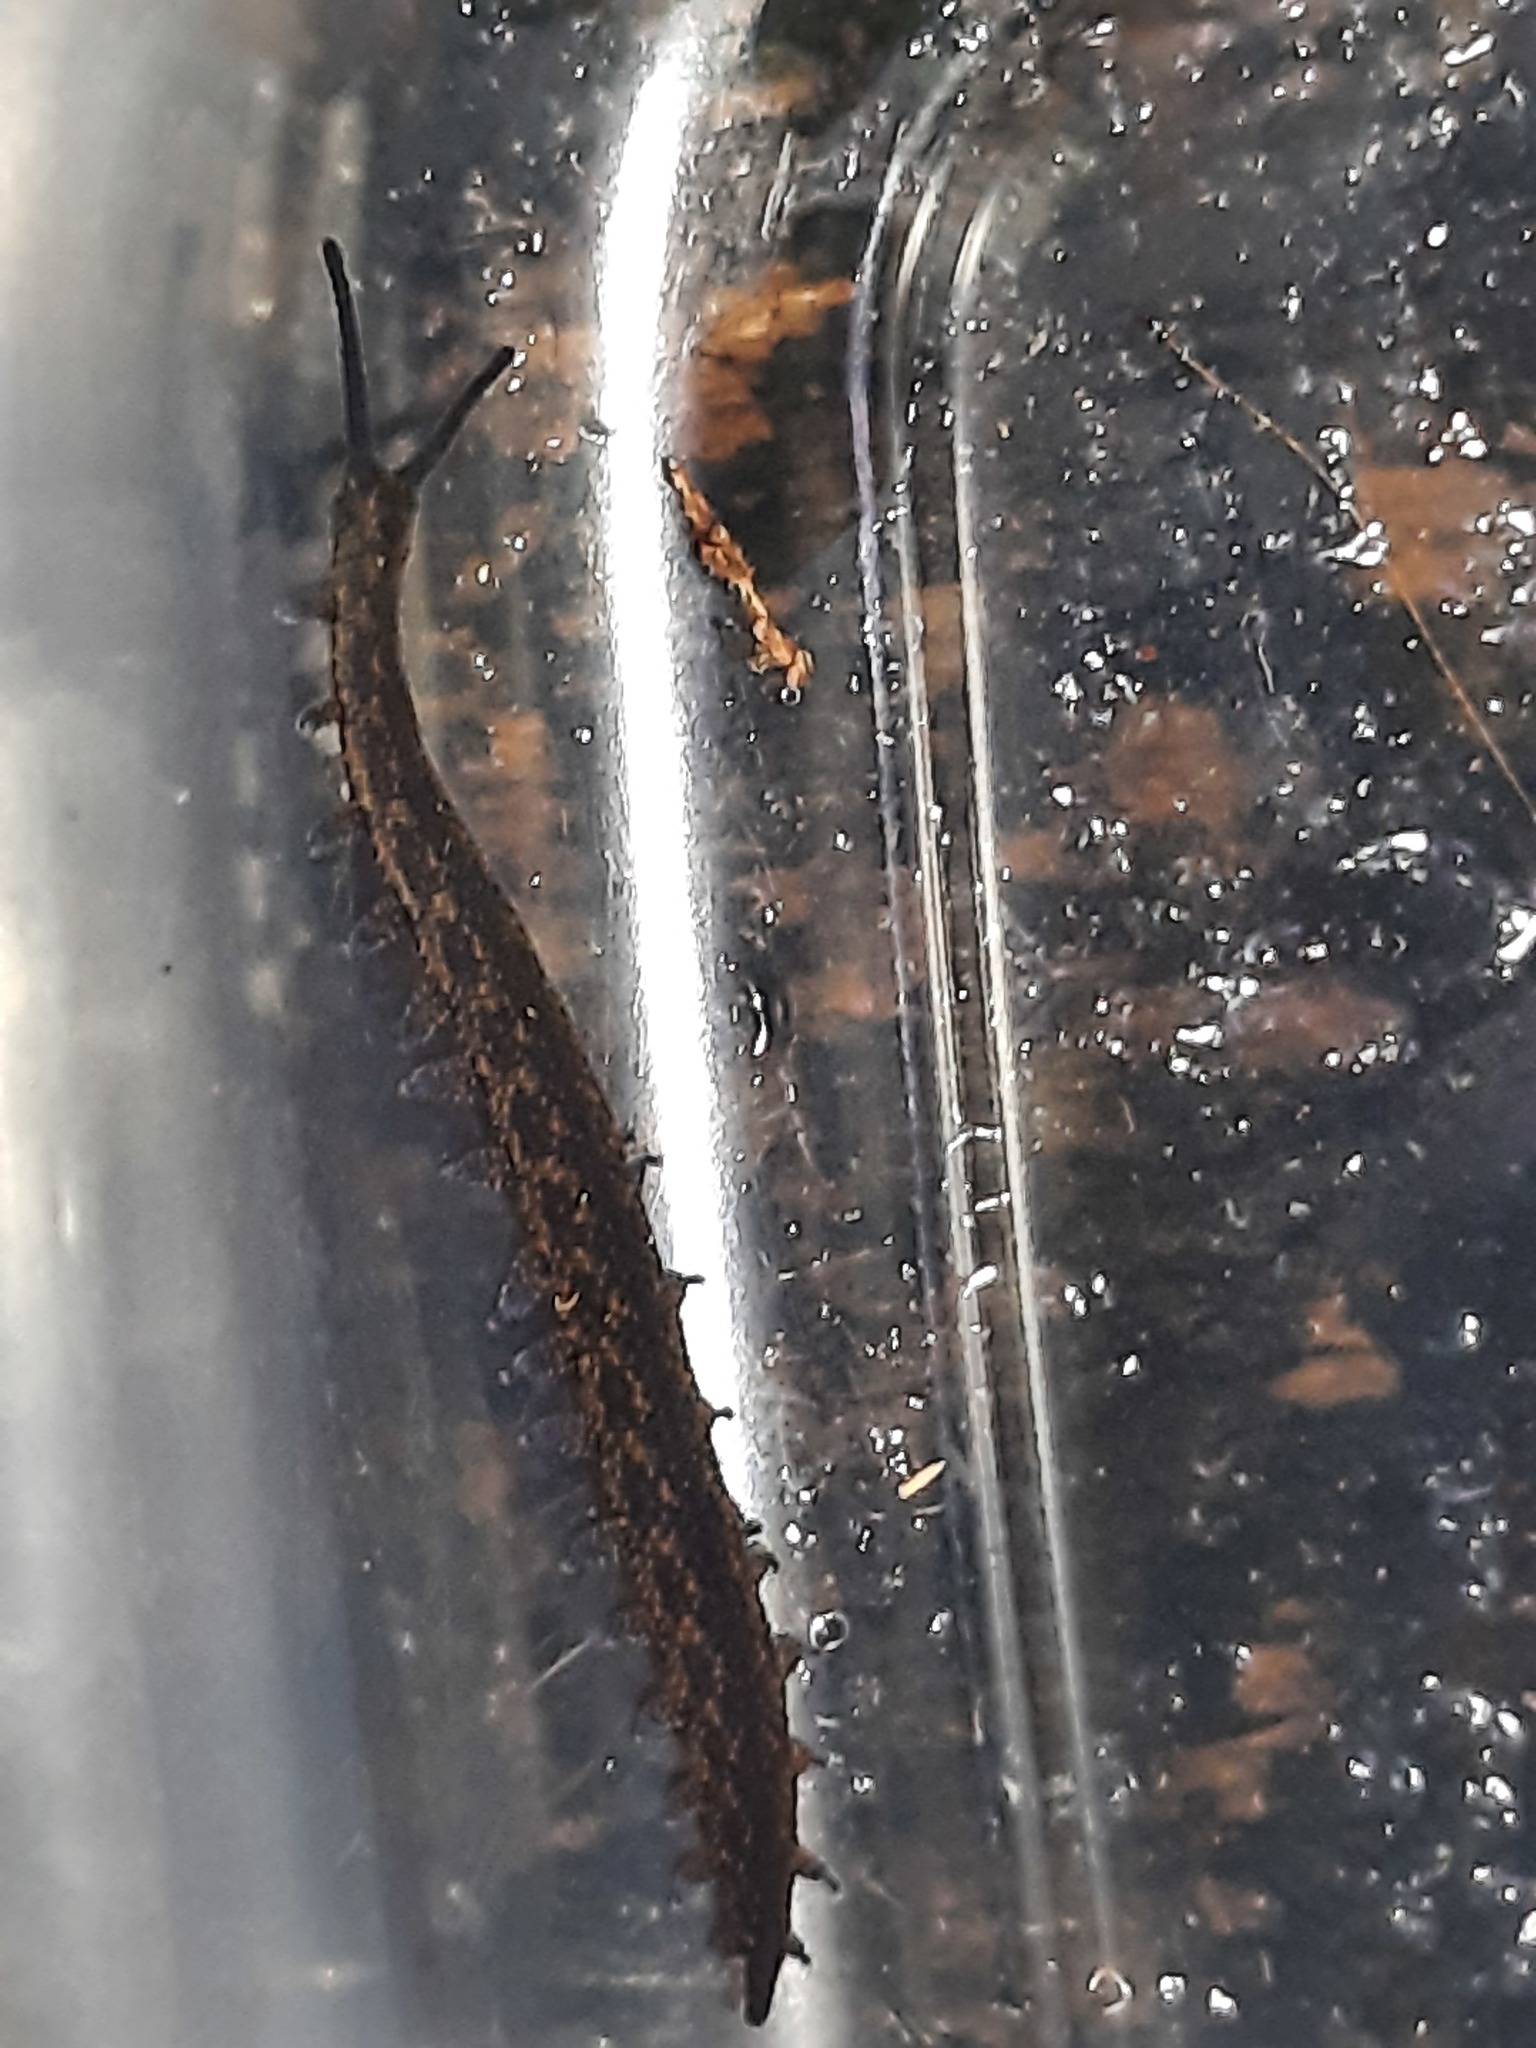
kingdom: Animalia
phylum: Onychophora
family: Peripatopsidae
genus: Peripatoides
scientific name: Peripatoides suteri
